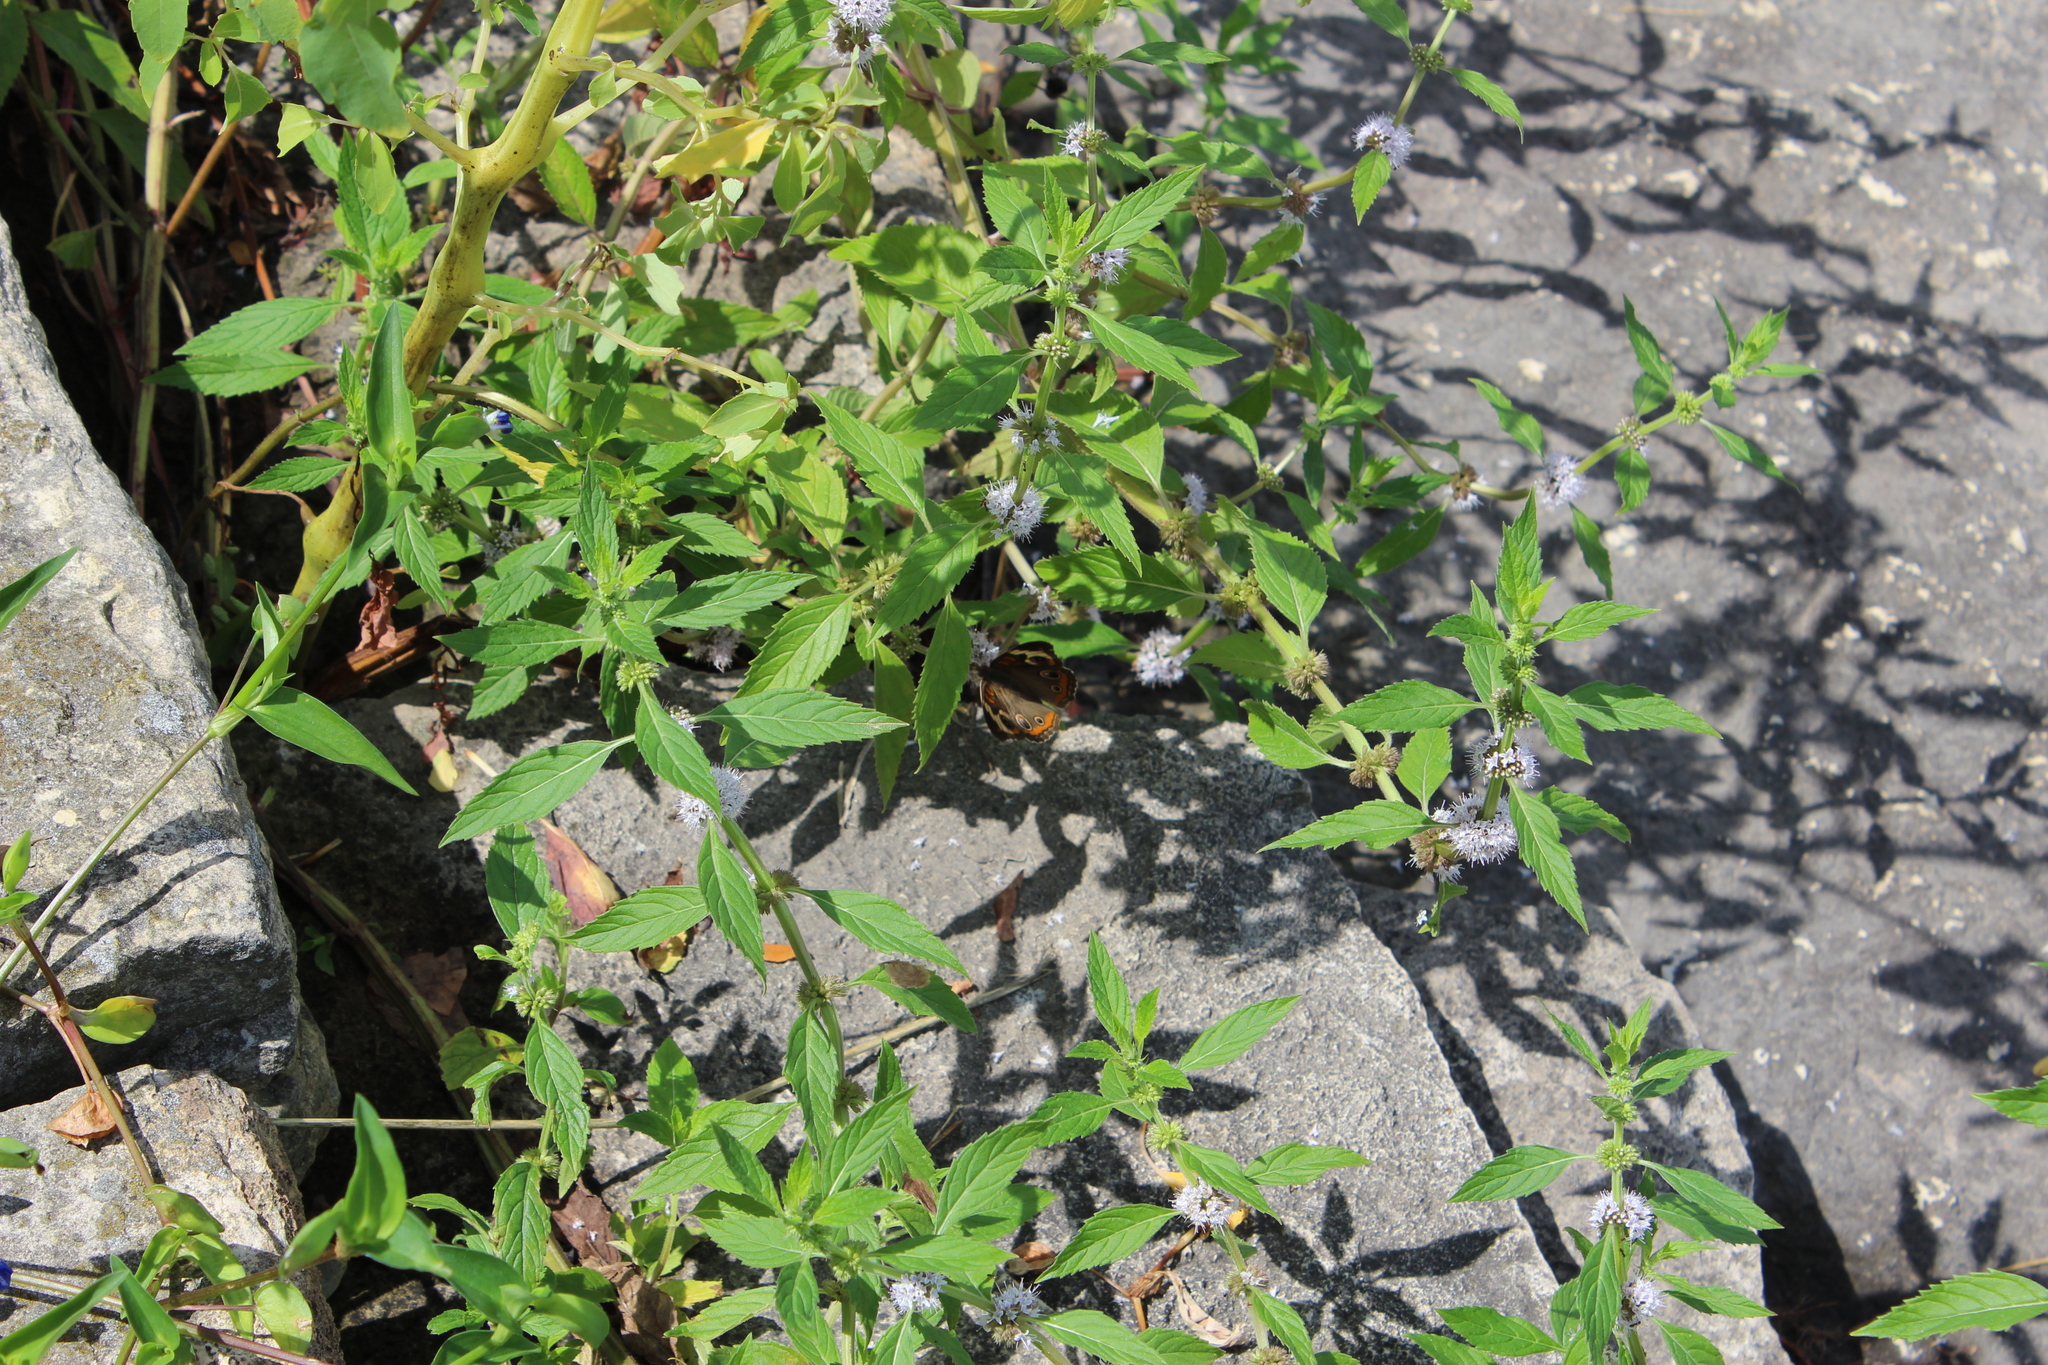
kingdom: Animalia
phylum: Arthropoda
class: Insecta
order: Lepidoptera
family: Nymphalidae
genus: Junonia
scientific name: Junonia coenia
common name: Common buckeye
